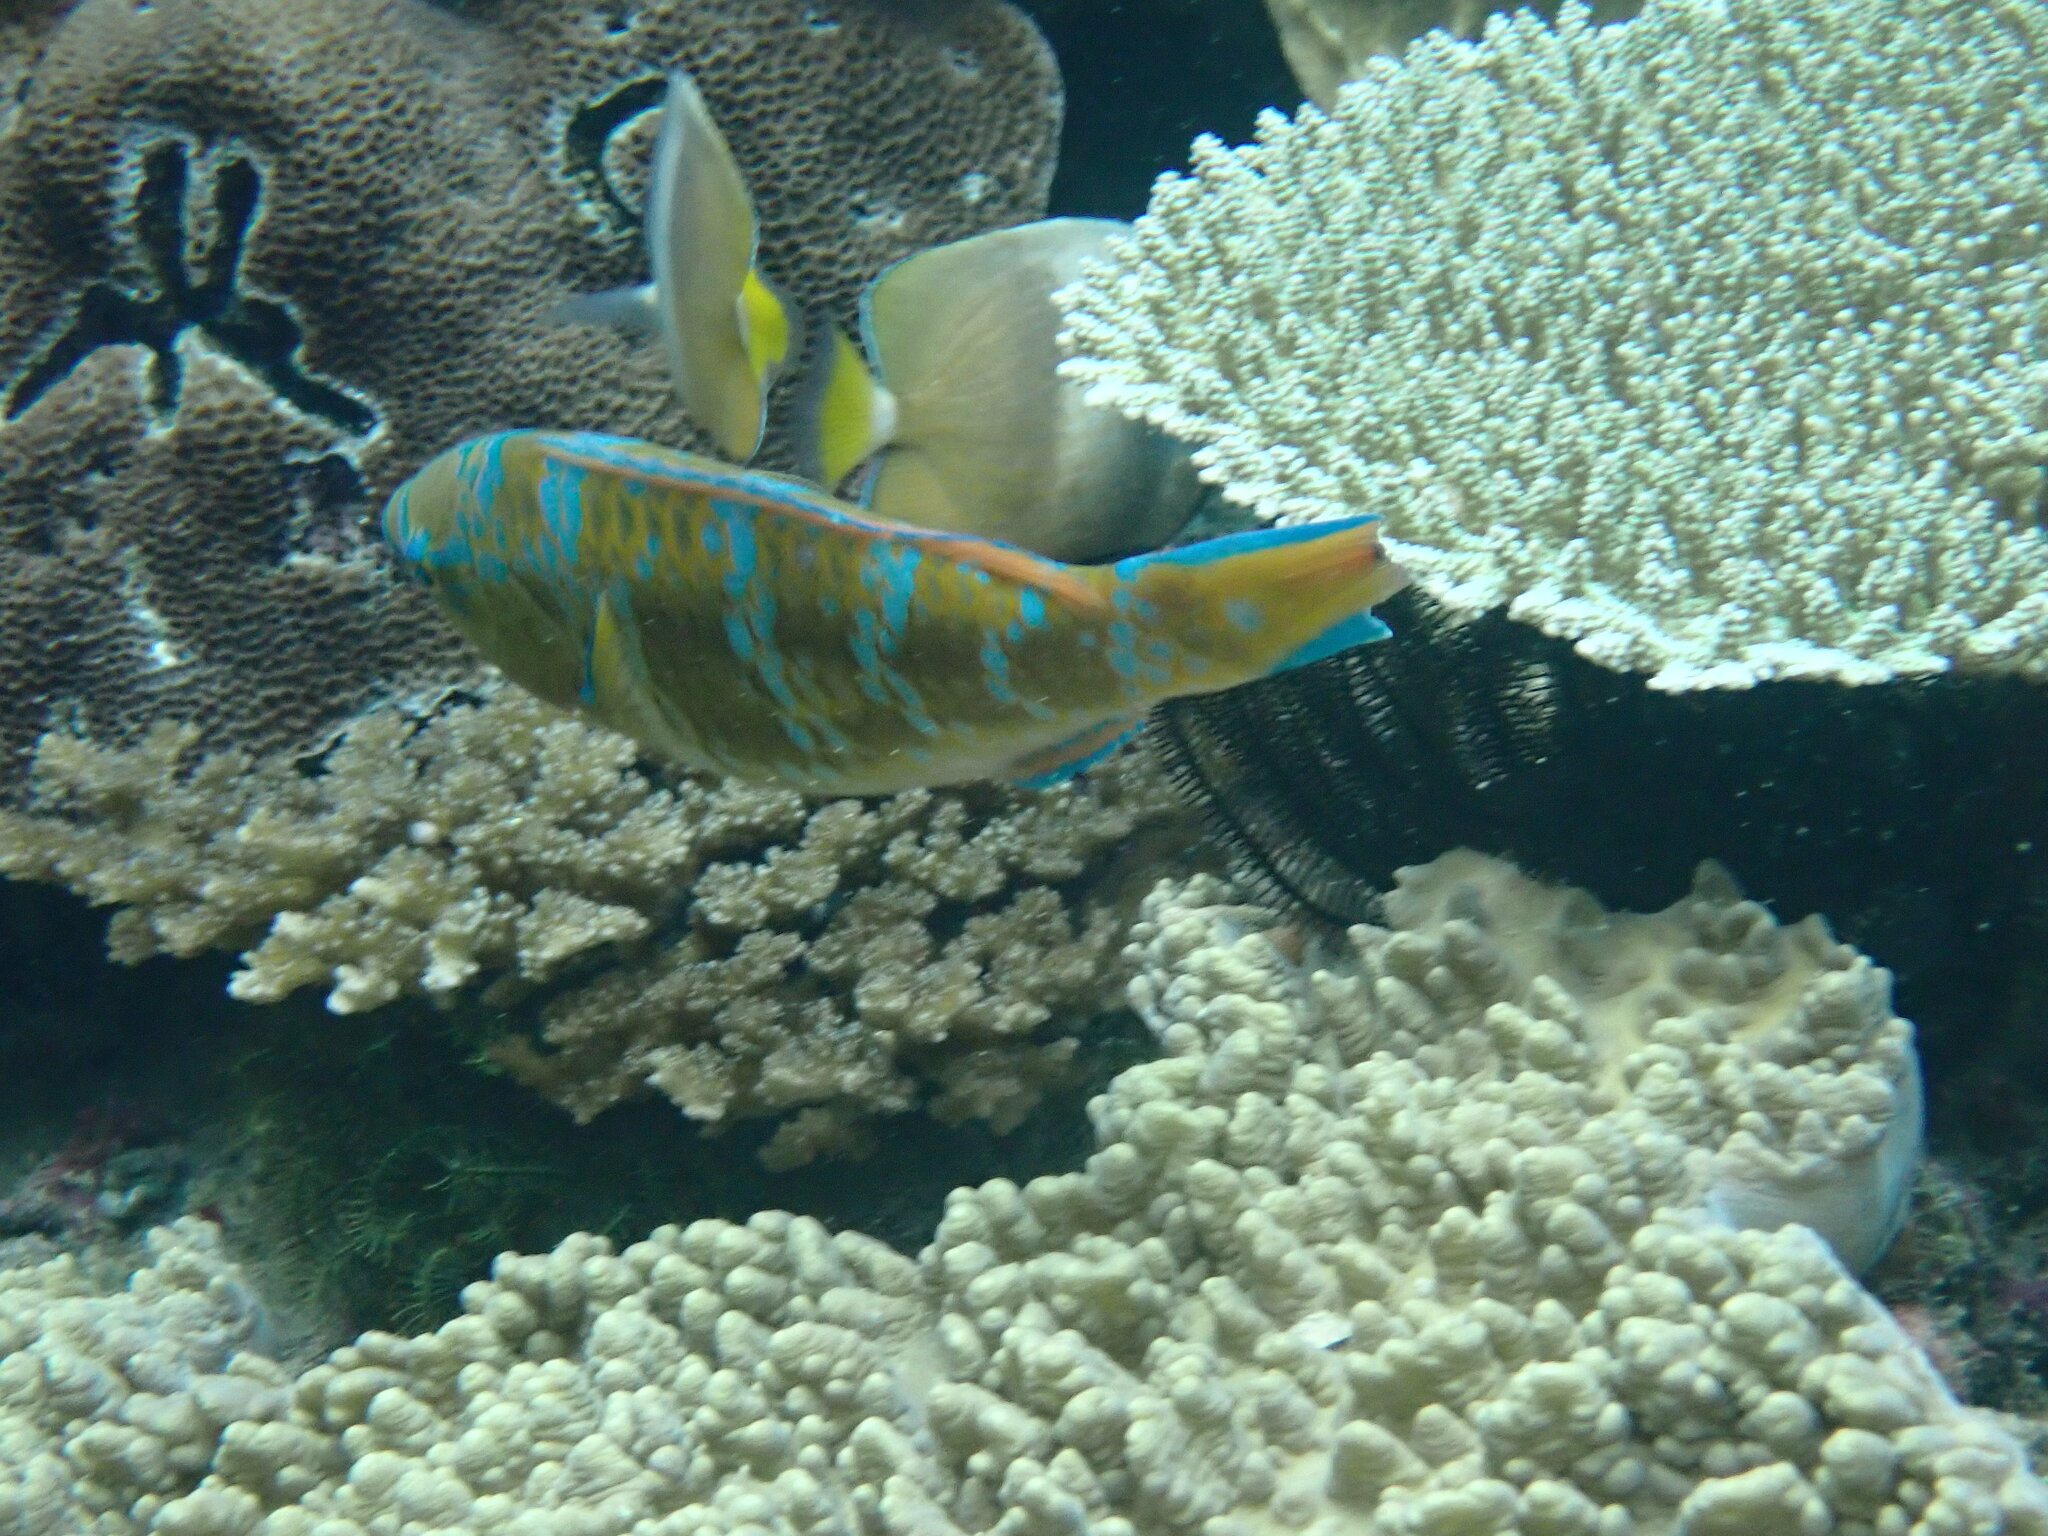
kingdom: Animalia
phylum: Chordata
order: Perciformes
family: Scaridae
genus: Scarus
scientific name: Scarus ghobban
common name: Blue-barred parrotfish
